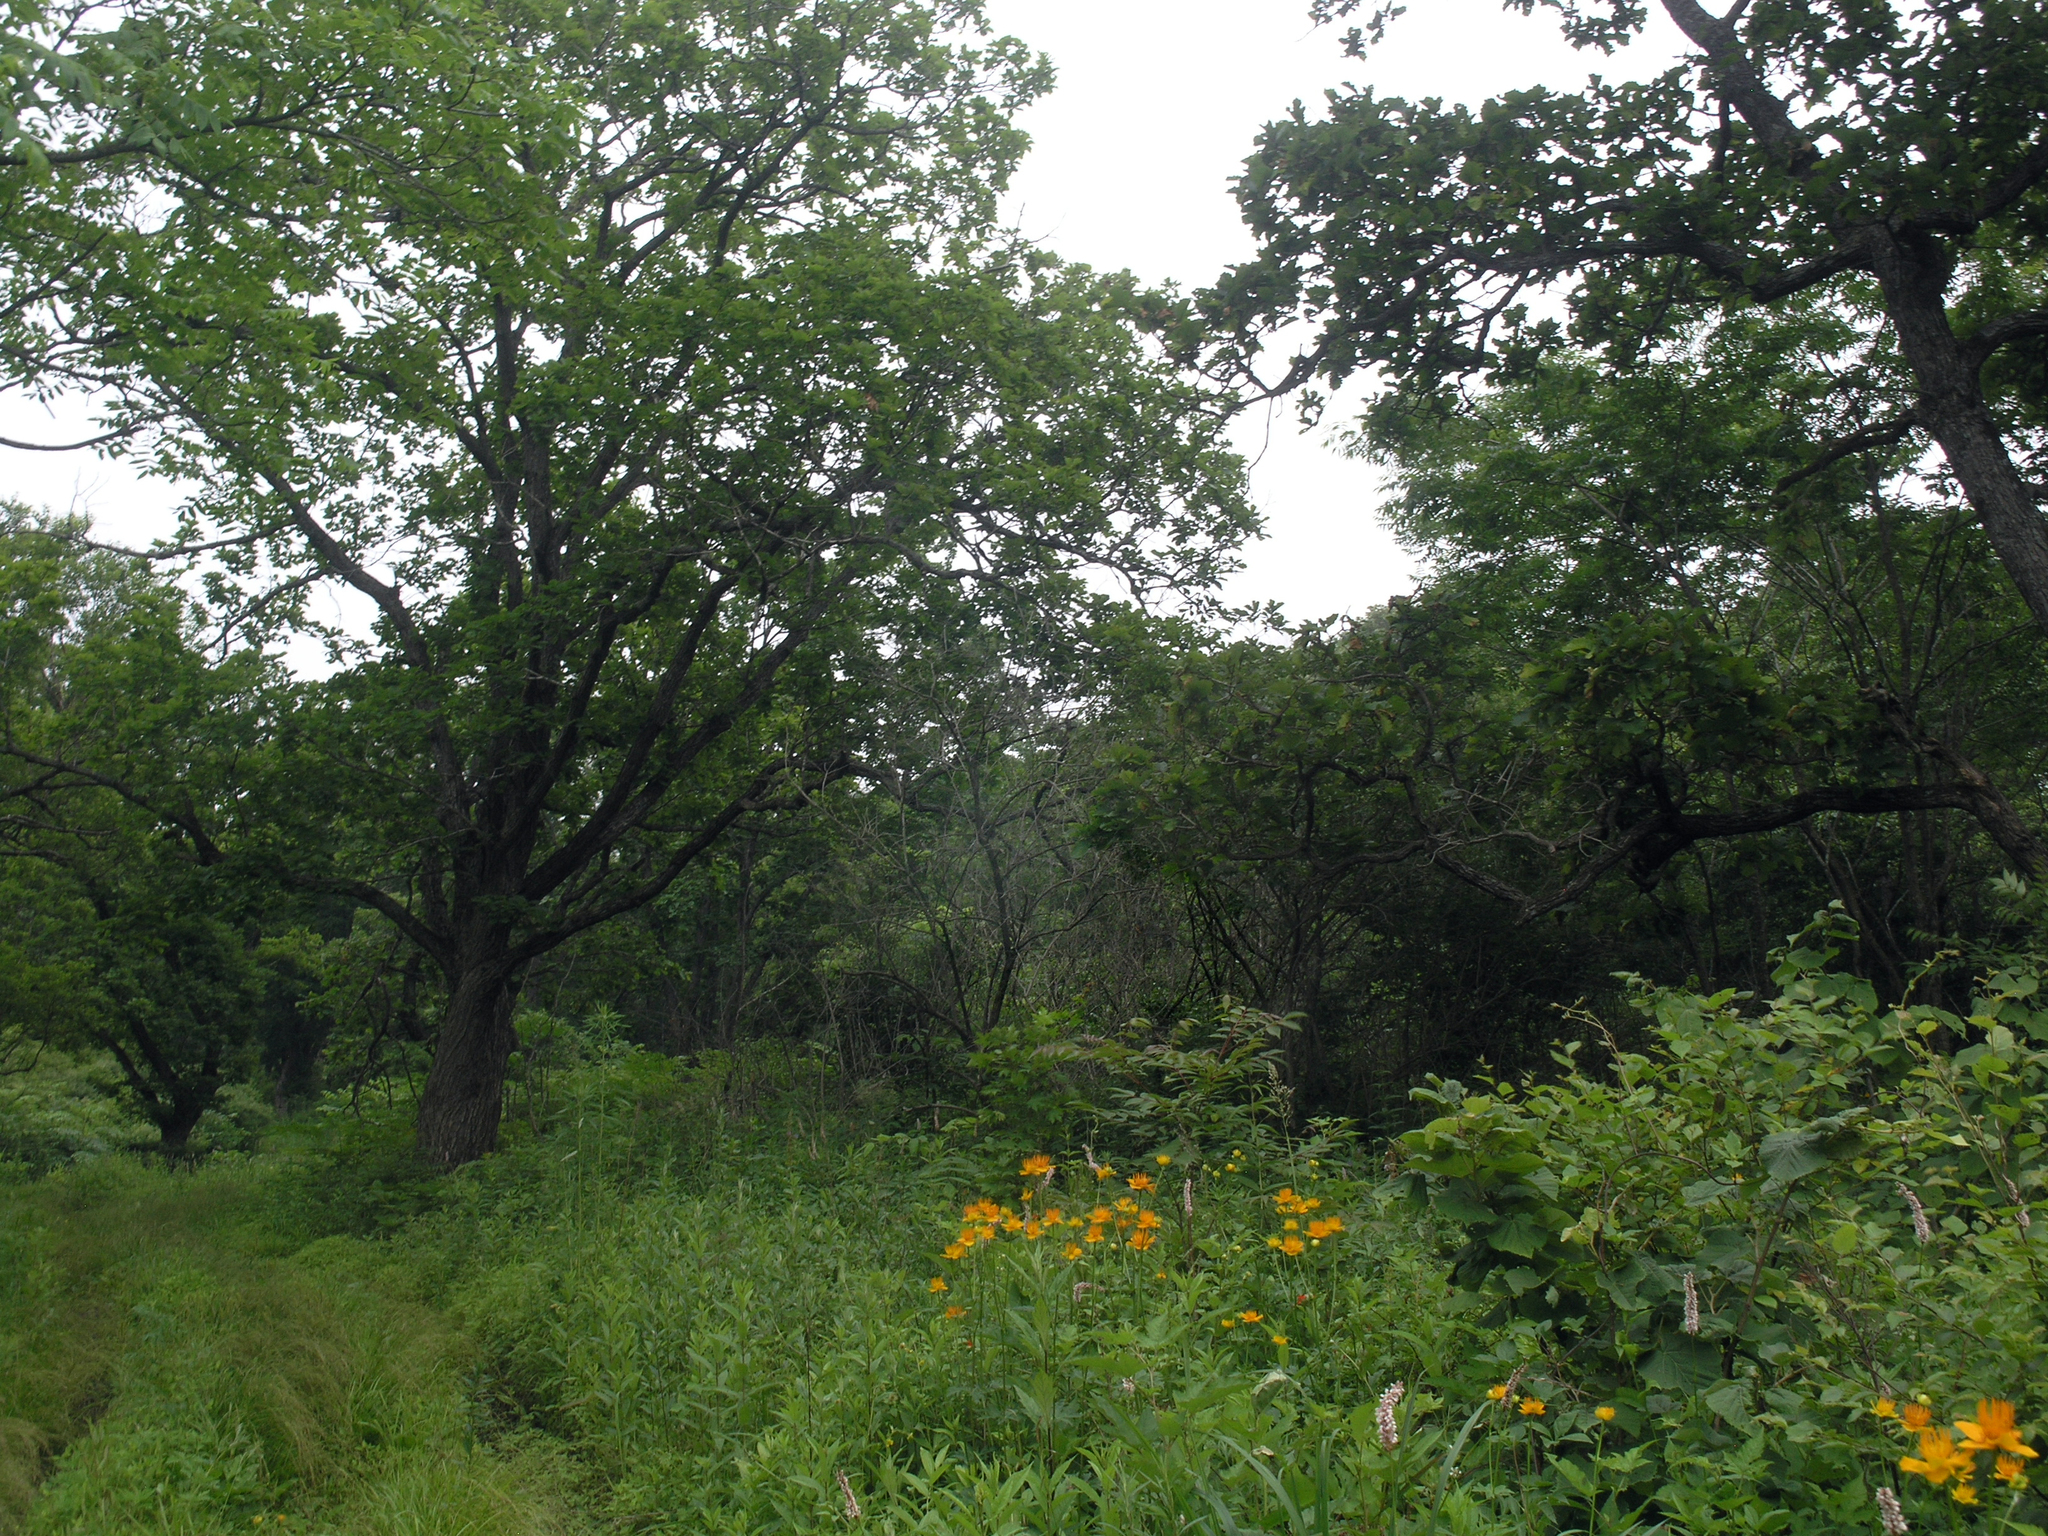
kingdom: Plantae
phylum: Tracheophyta
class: Magnoliopsida
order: Ranunculales
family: Ranunculaceae
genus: Trollius
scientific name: Trollius chinensis
